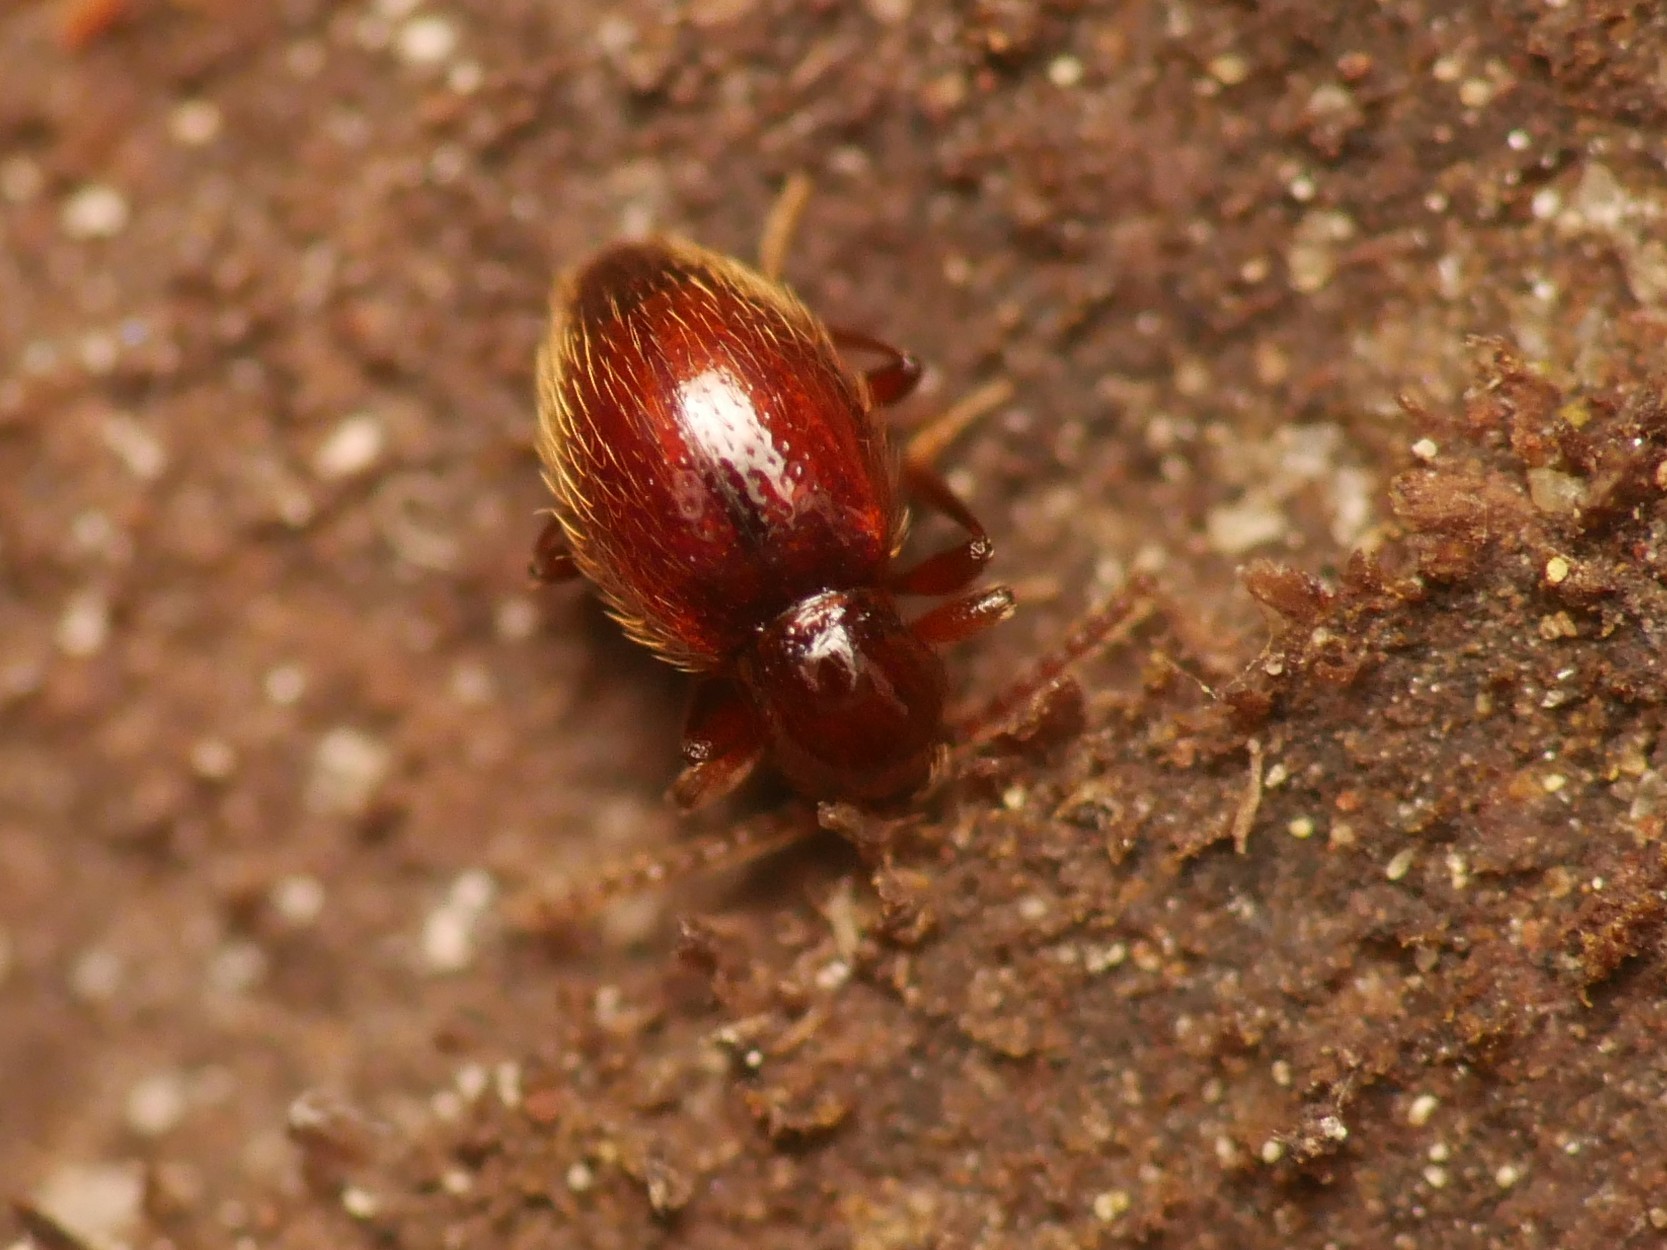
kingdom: Animalia
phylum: Arthropoda
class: Insecta
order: Coleoptera
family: Staphylinidae
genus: Stenichnus
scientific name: Stenichnus godarti
